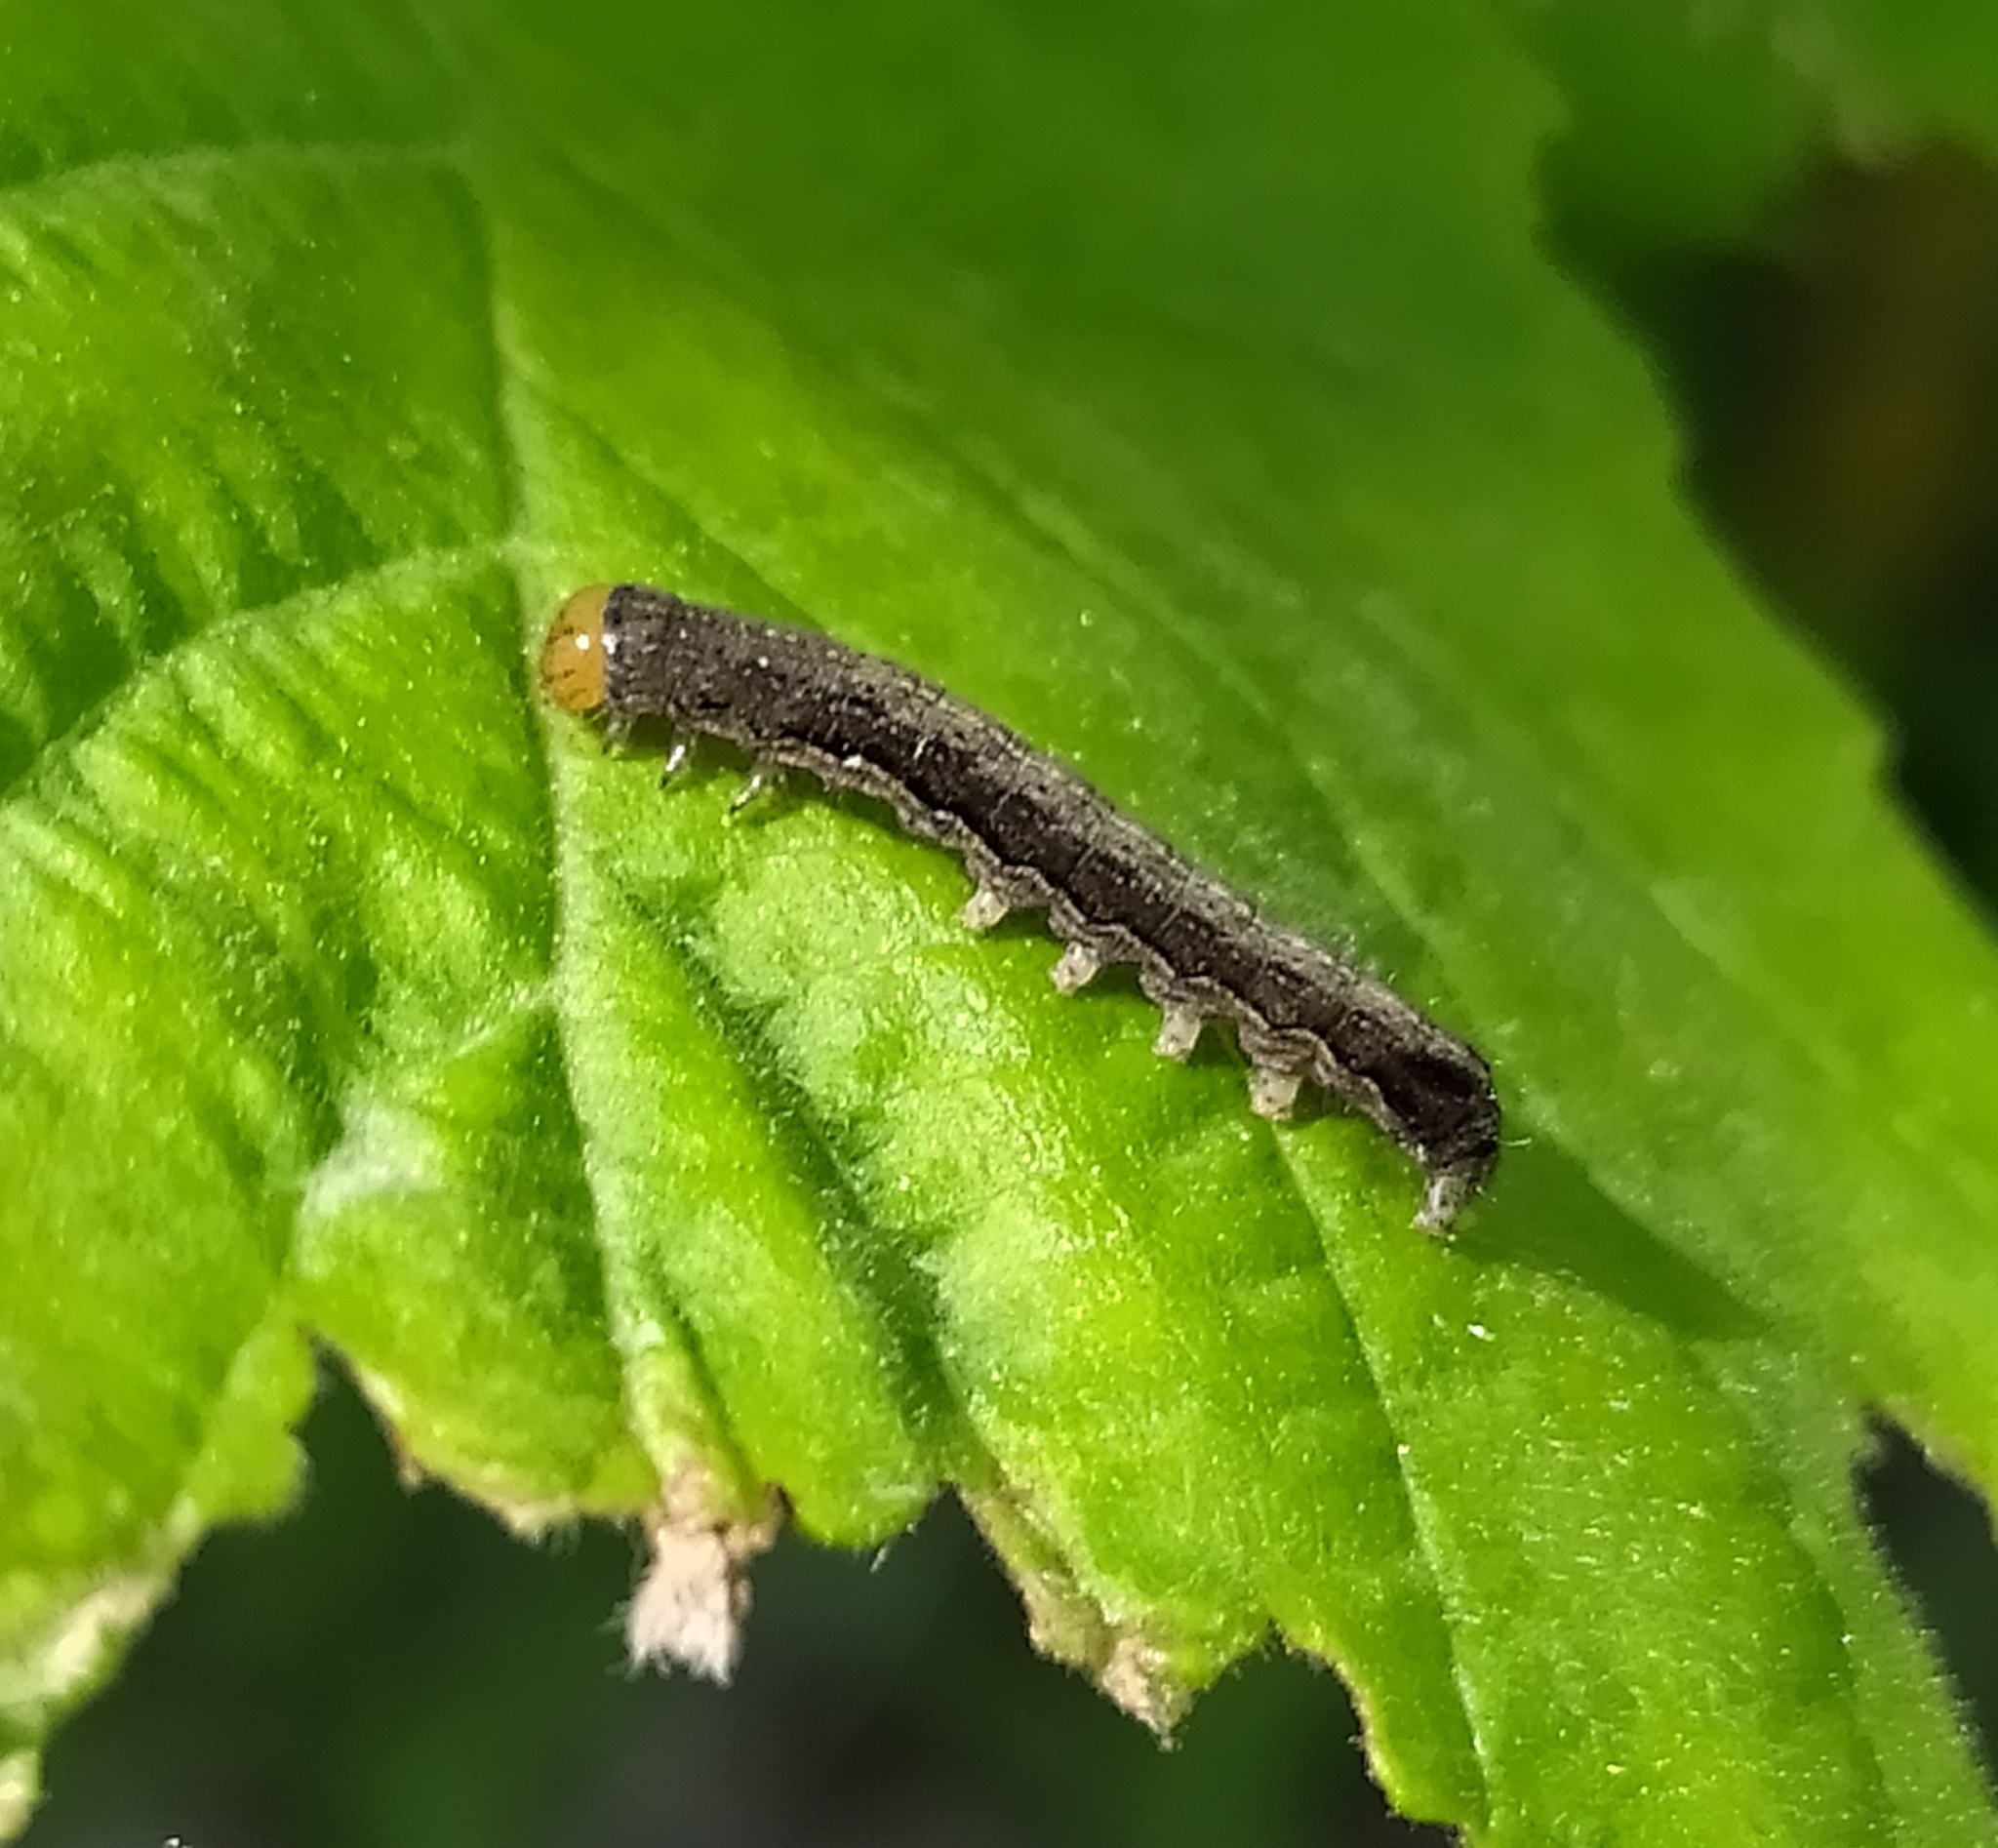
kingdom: Animalia
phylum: Arthropoda
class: Insecta
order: Lepidoptera
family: Noctuidae
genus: Anorthoa
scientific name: Anorthoa munda
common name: Twin-spotted quaker
